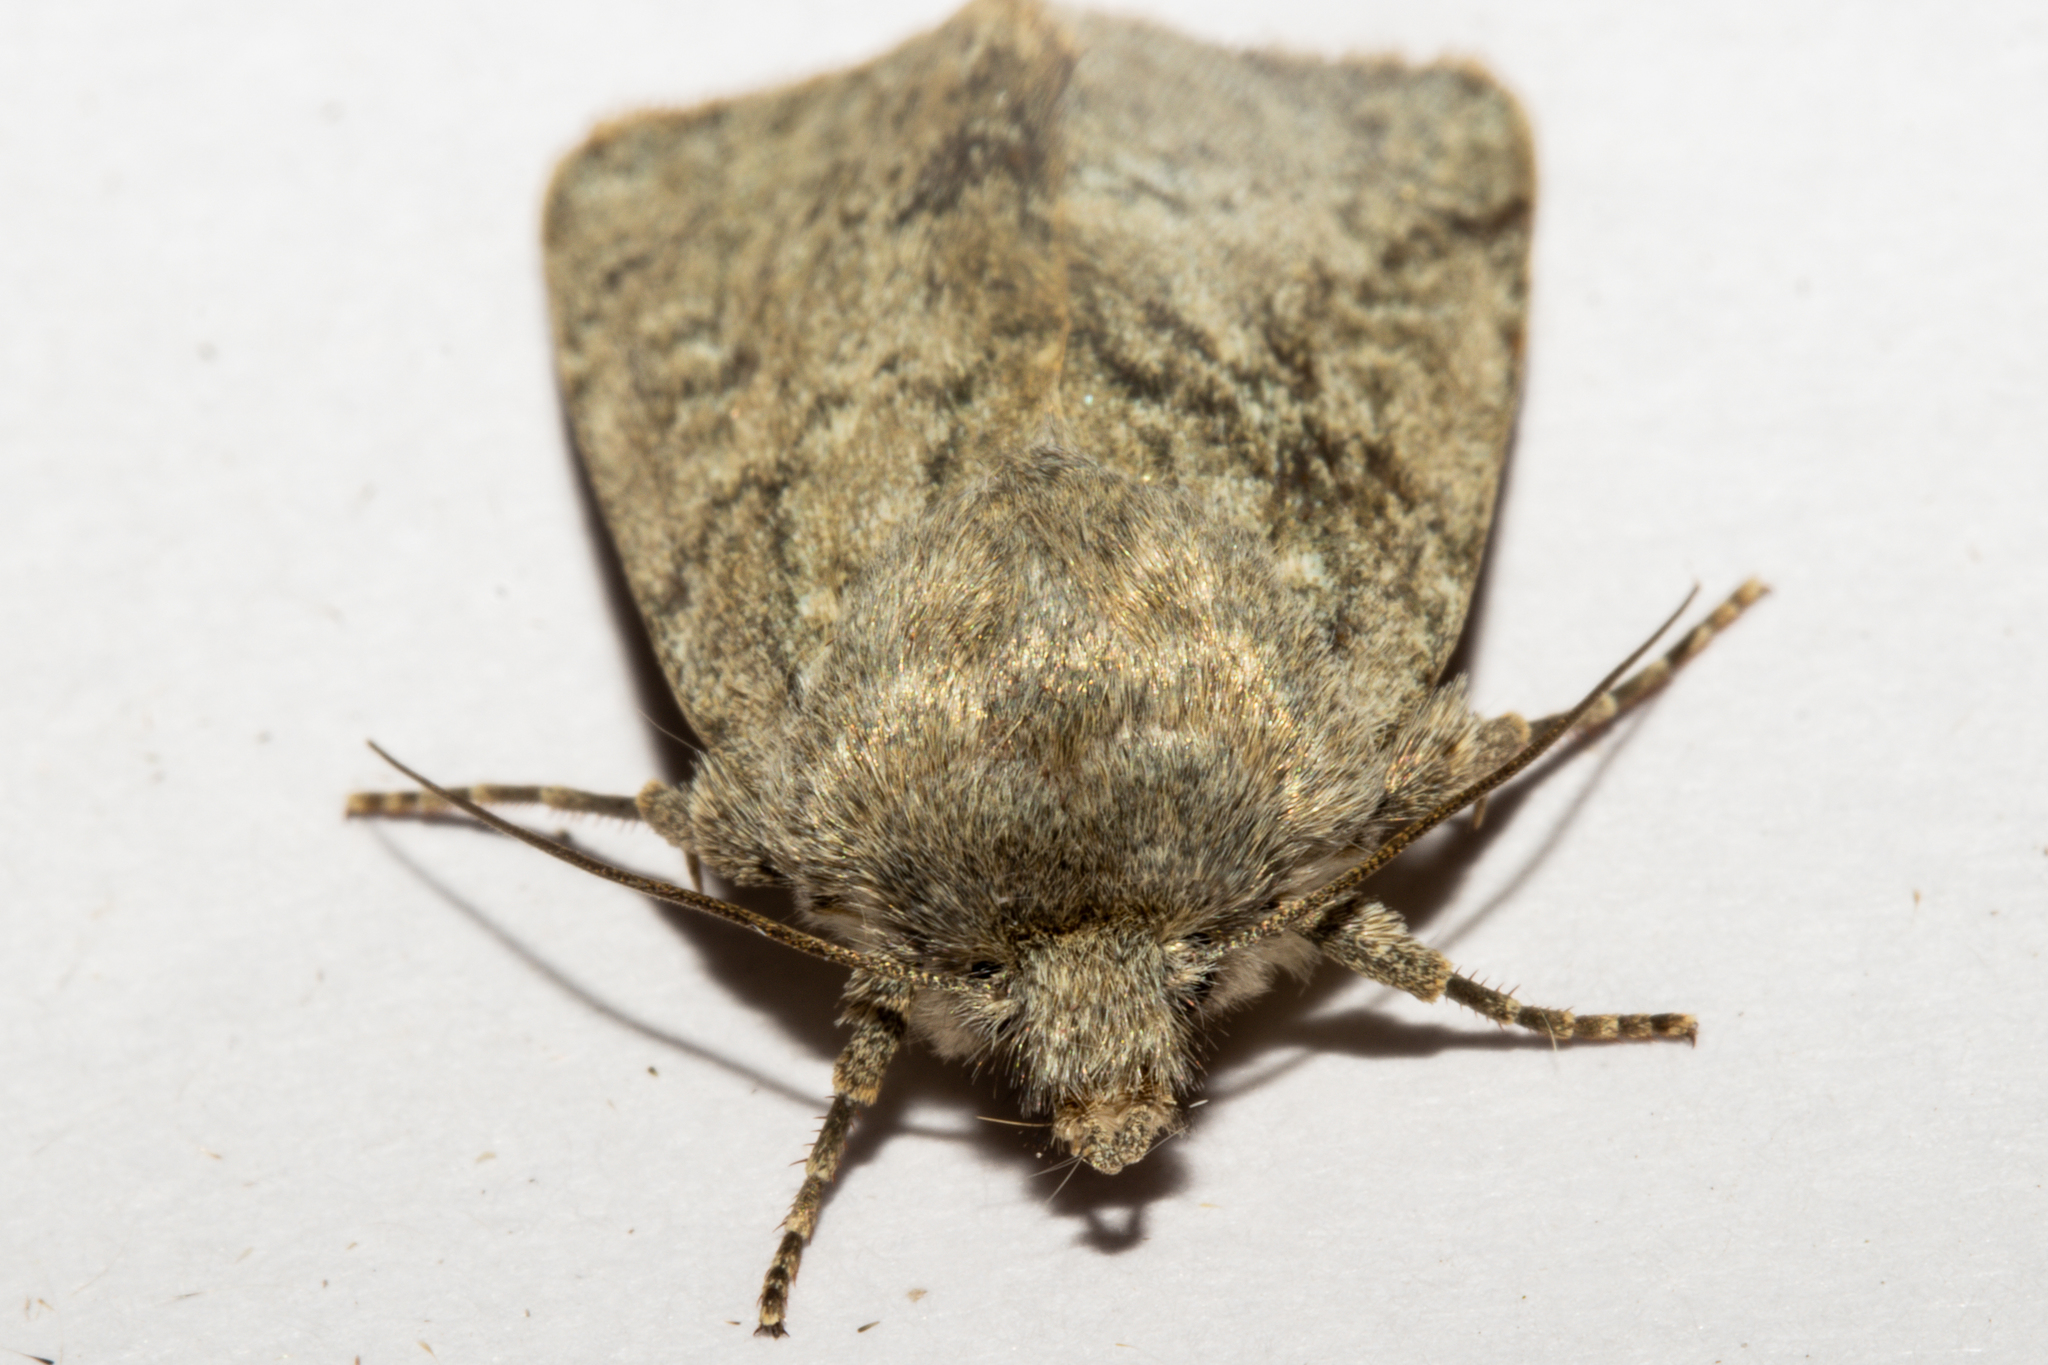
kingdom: Animalia
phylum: Arthropoda
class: Insecta
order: Lepidoptera
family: Noctuidae
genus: Physetica
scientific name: Physetica caerulea
